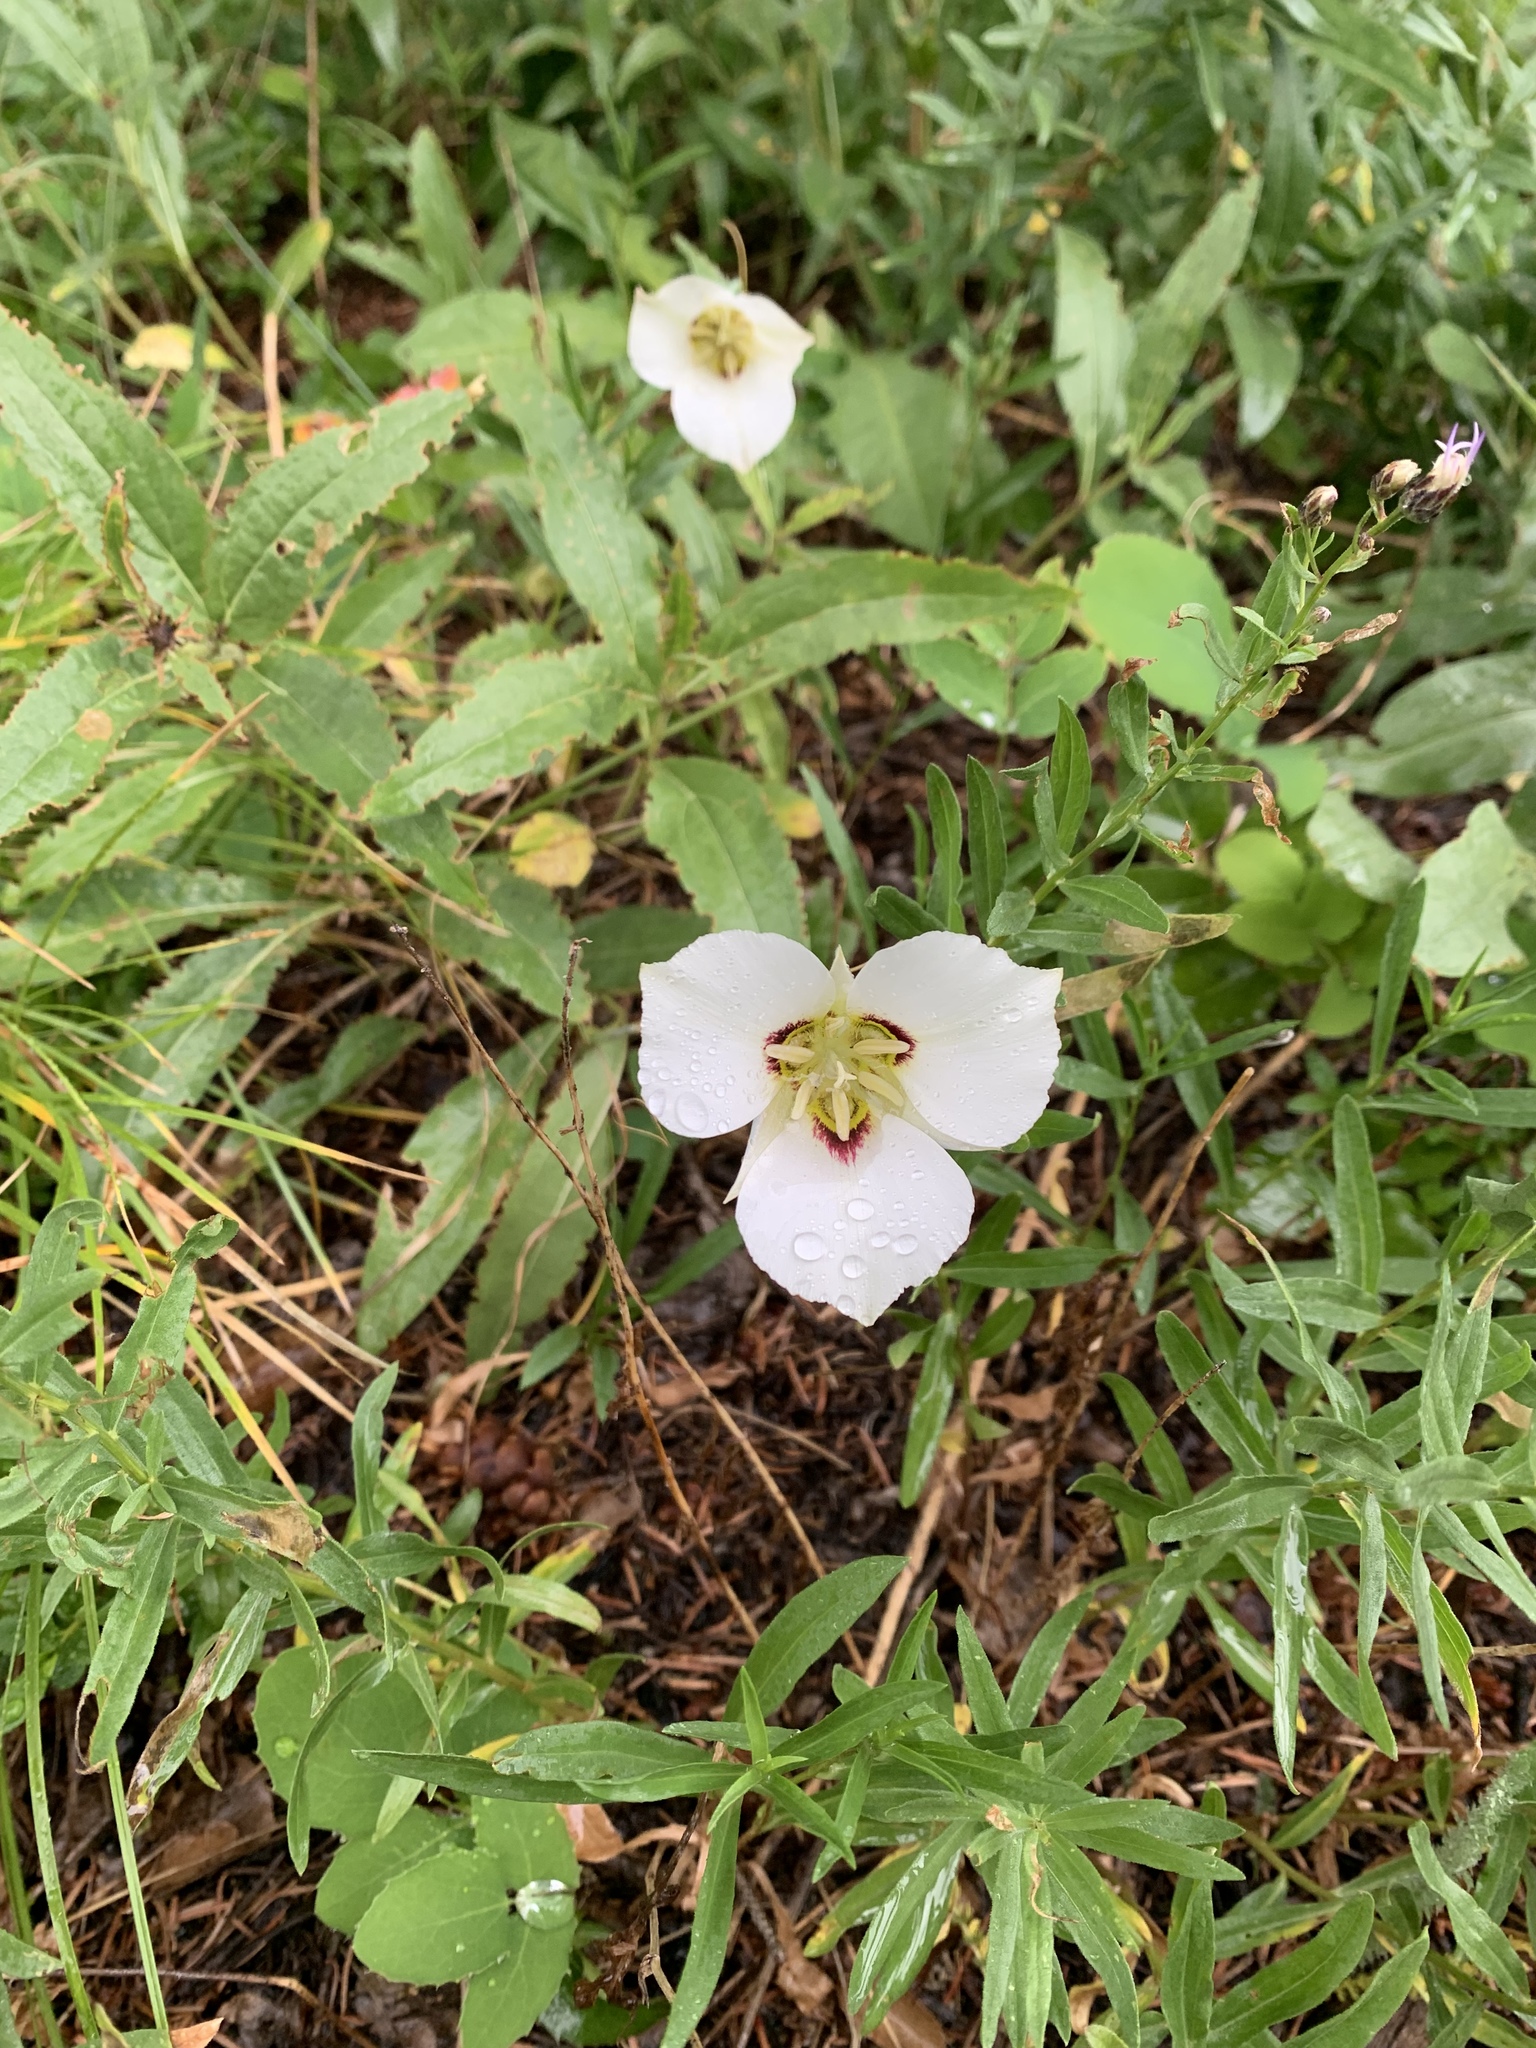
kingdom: Plantae
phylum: Tracheophyta
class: Liliopsida
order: Liliales
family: Liliaceae
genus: Calochortus
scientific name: Calochortus nuttallii
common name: Sego-lily
